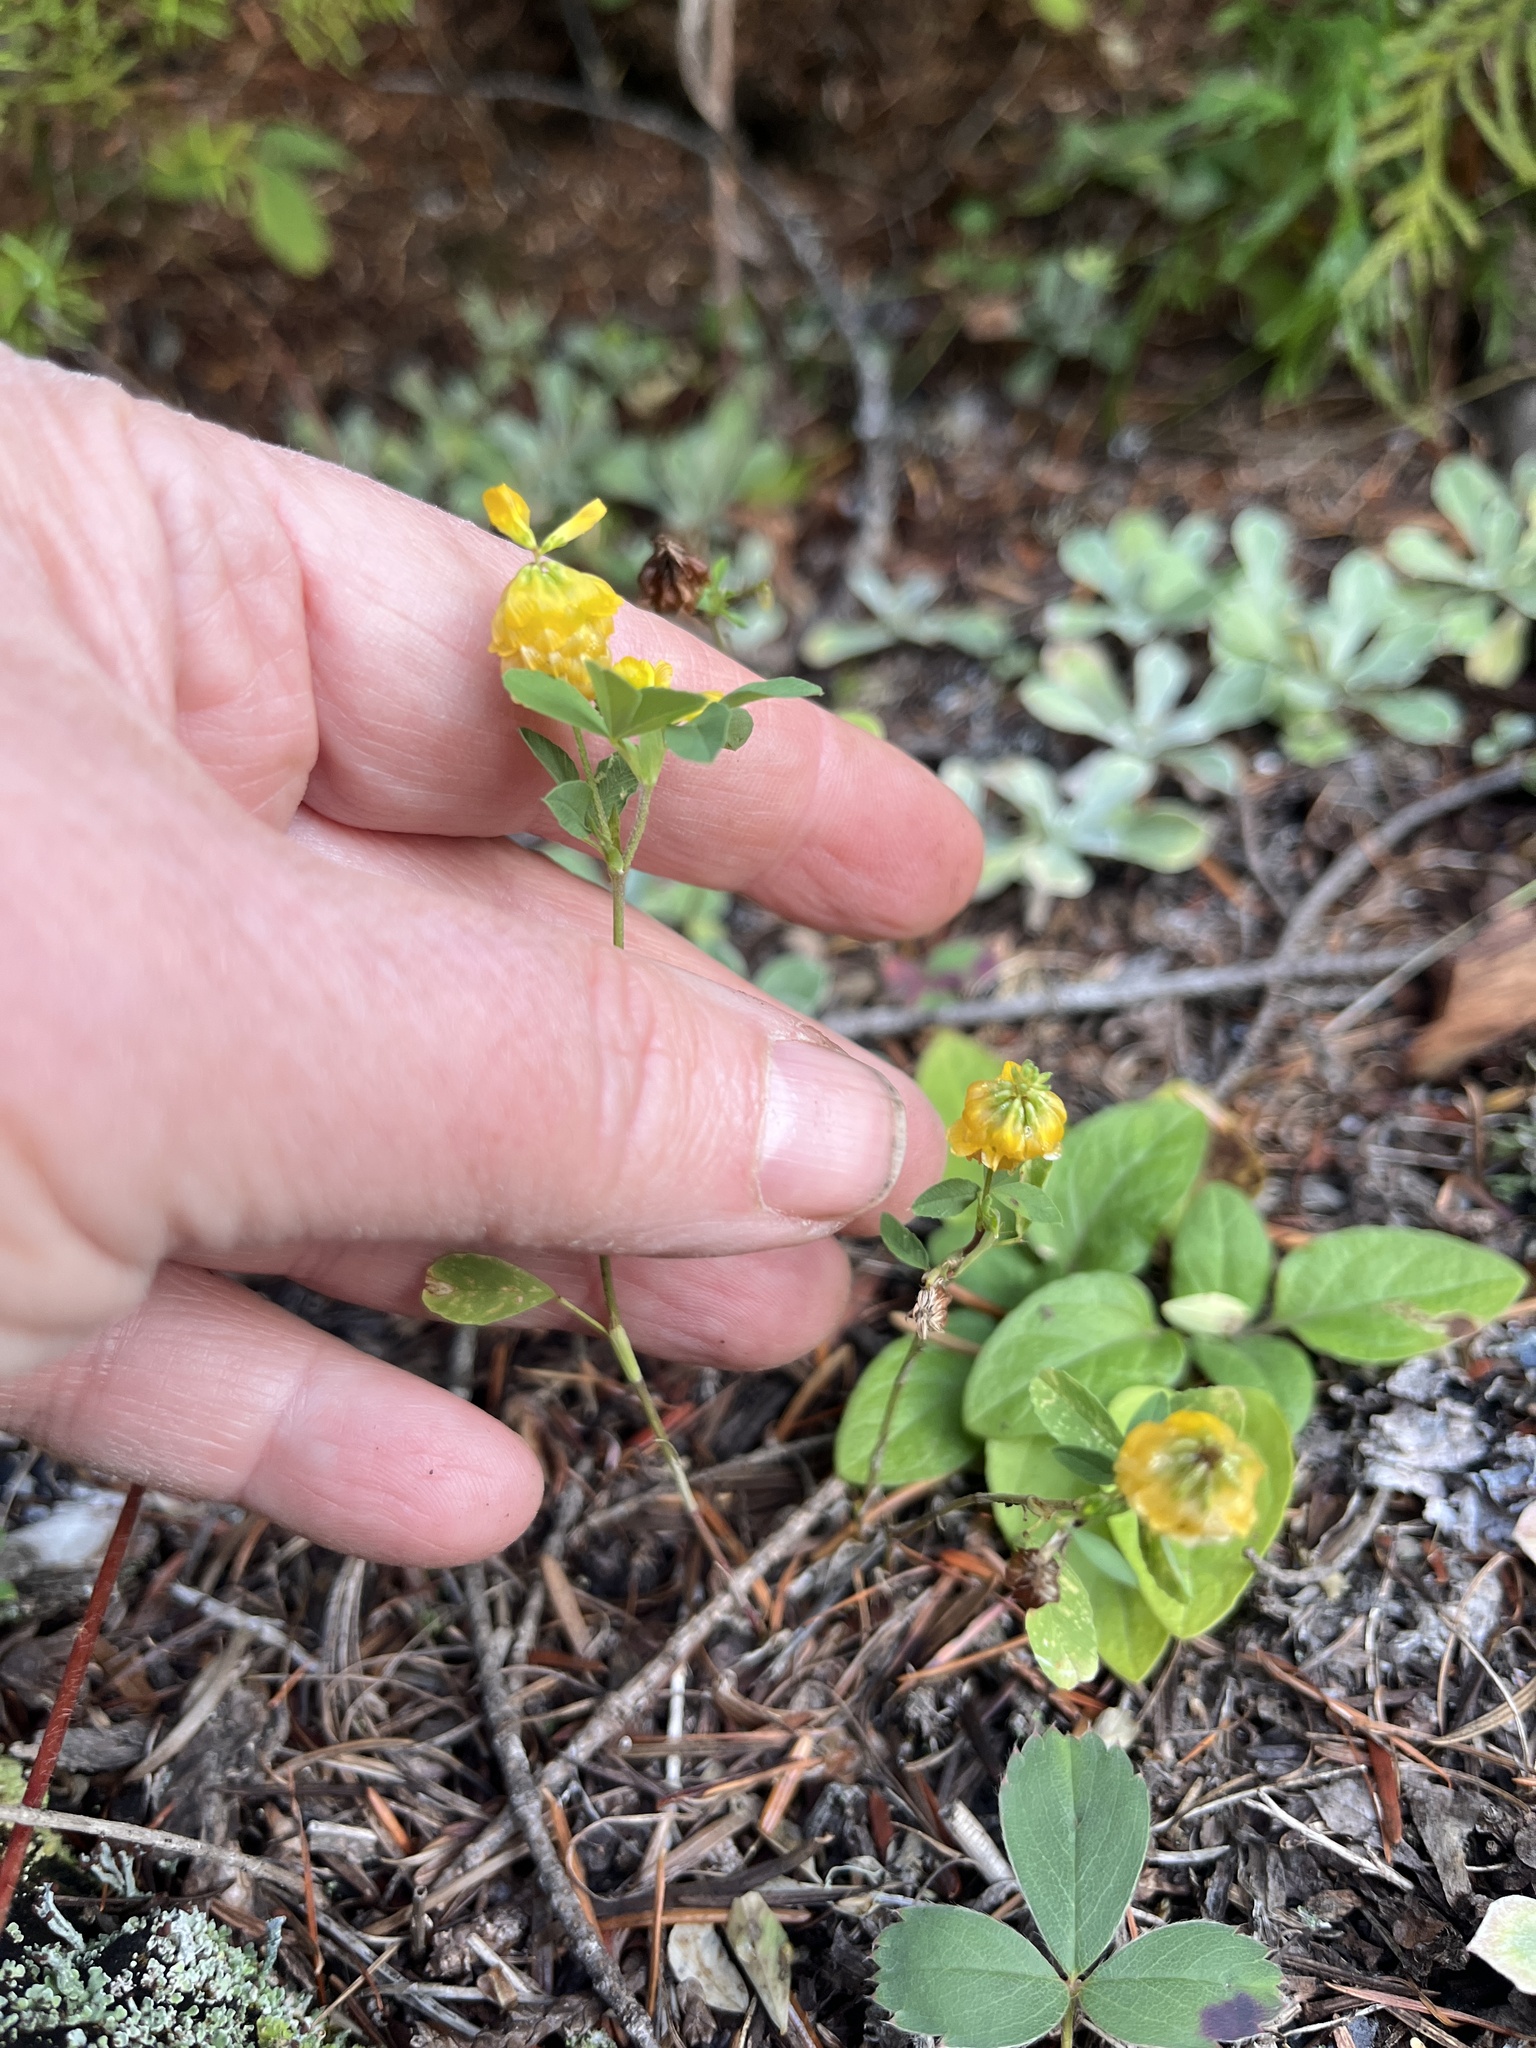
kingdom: Plantae
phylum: Tracheophyta
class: Magnoliopsida
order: Fabales
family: Fabaceae
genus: Trifolium
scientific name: Trifolium aureum
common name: Golden clover
